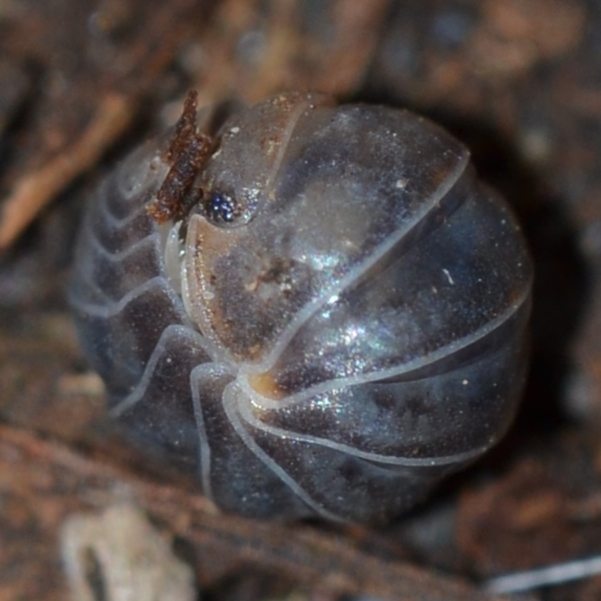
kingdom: Animalia
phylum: Arthropoda
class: Malacostraca
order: Isopoda
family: Armadillidae
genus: Venezillo
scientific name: Venezillo parvus
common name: Pillbug
